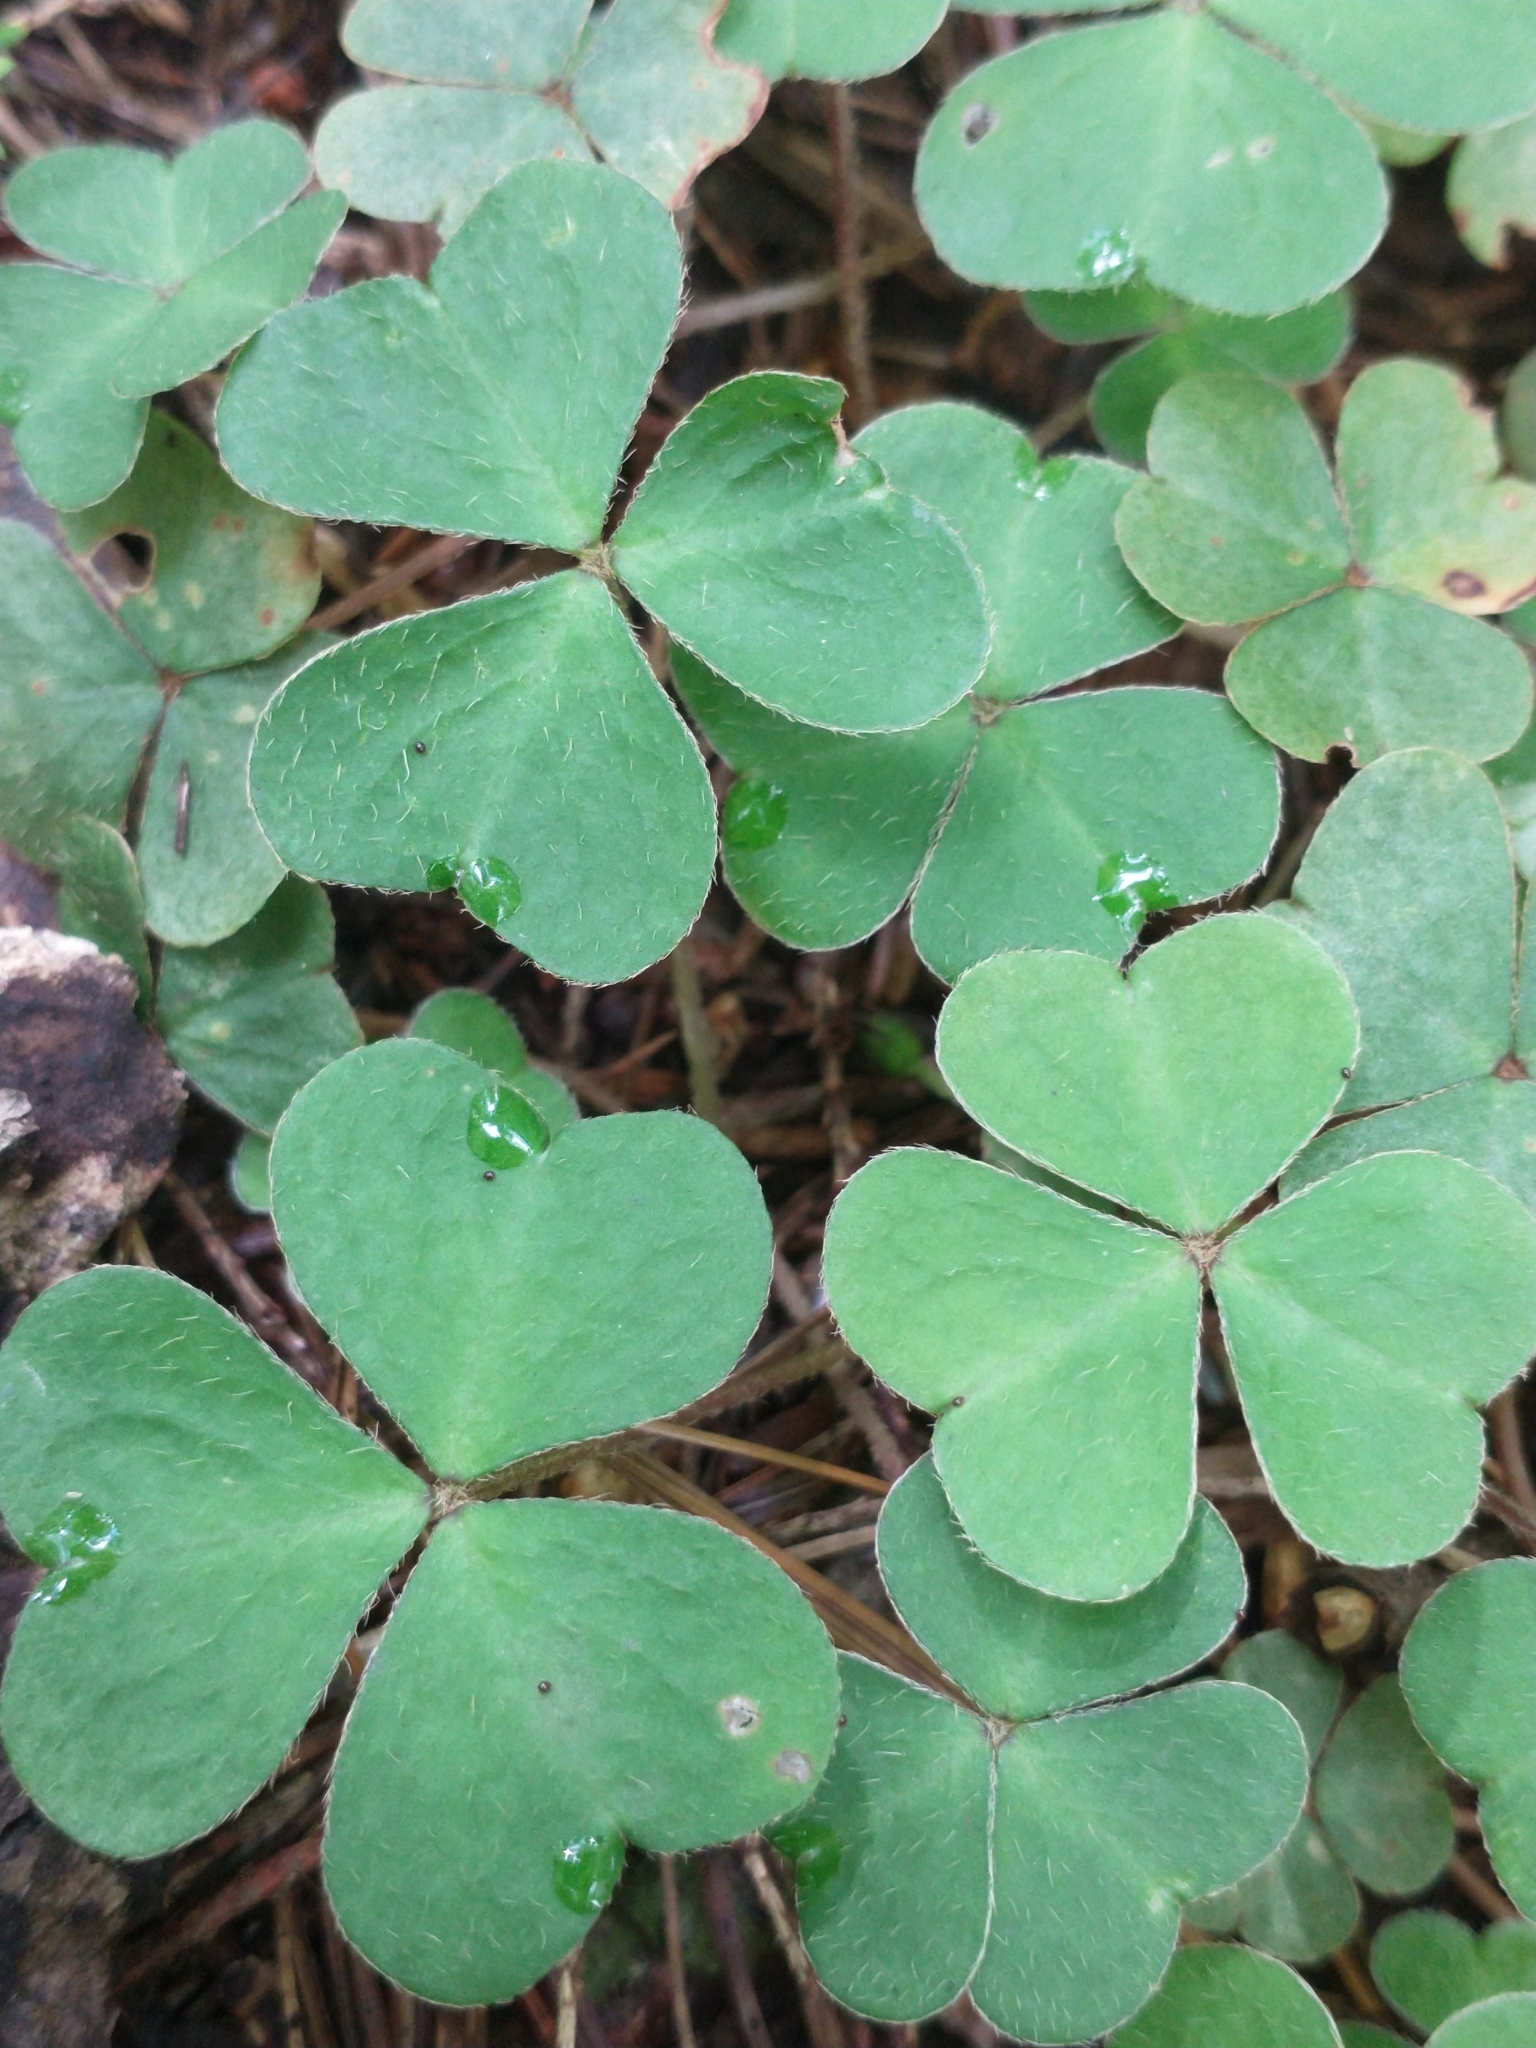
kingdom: Plantae
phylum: Tracheophyta
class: Magnoliopsida
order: Oxalidales
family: Oxalidaceae
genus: Oxalis
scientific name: Oxalis montana
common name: American wood-sorrel
